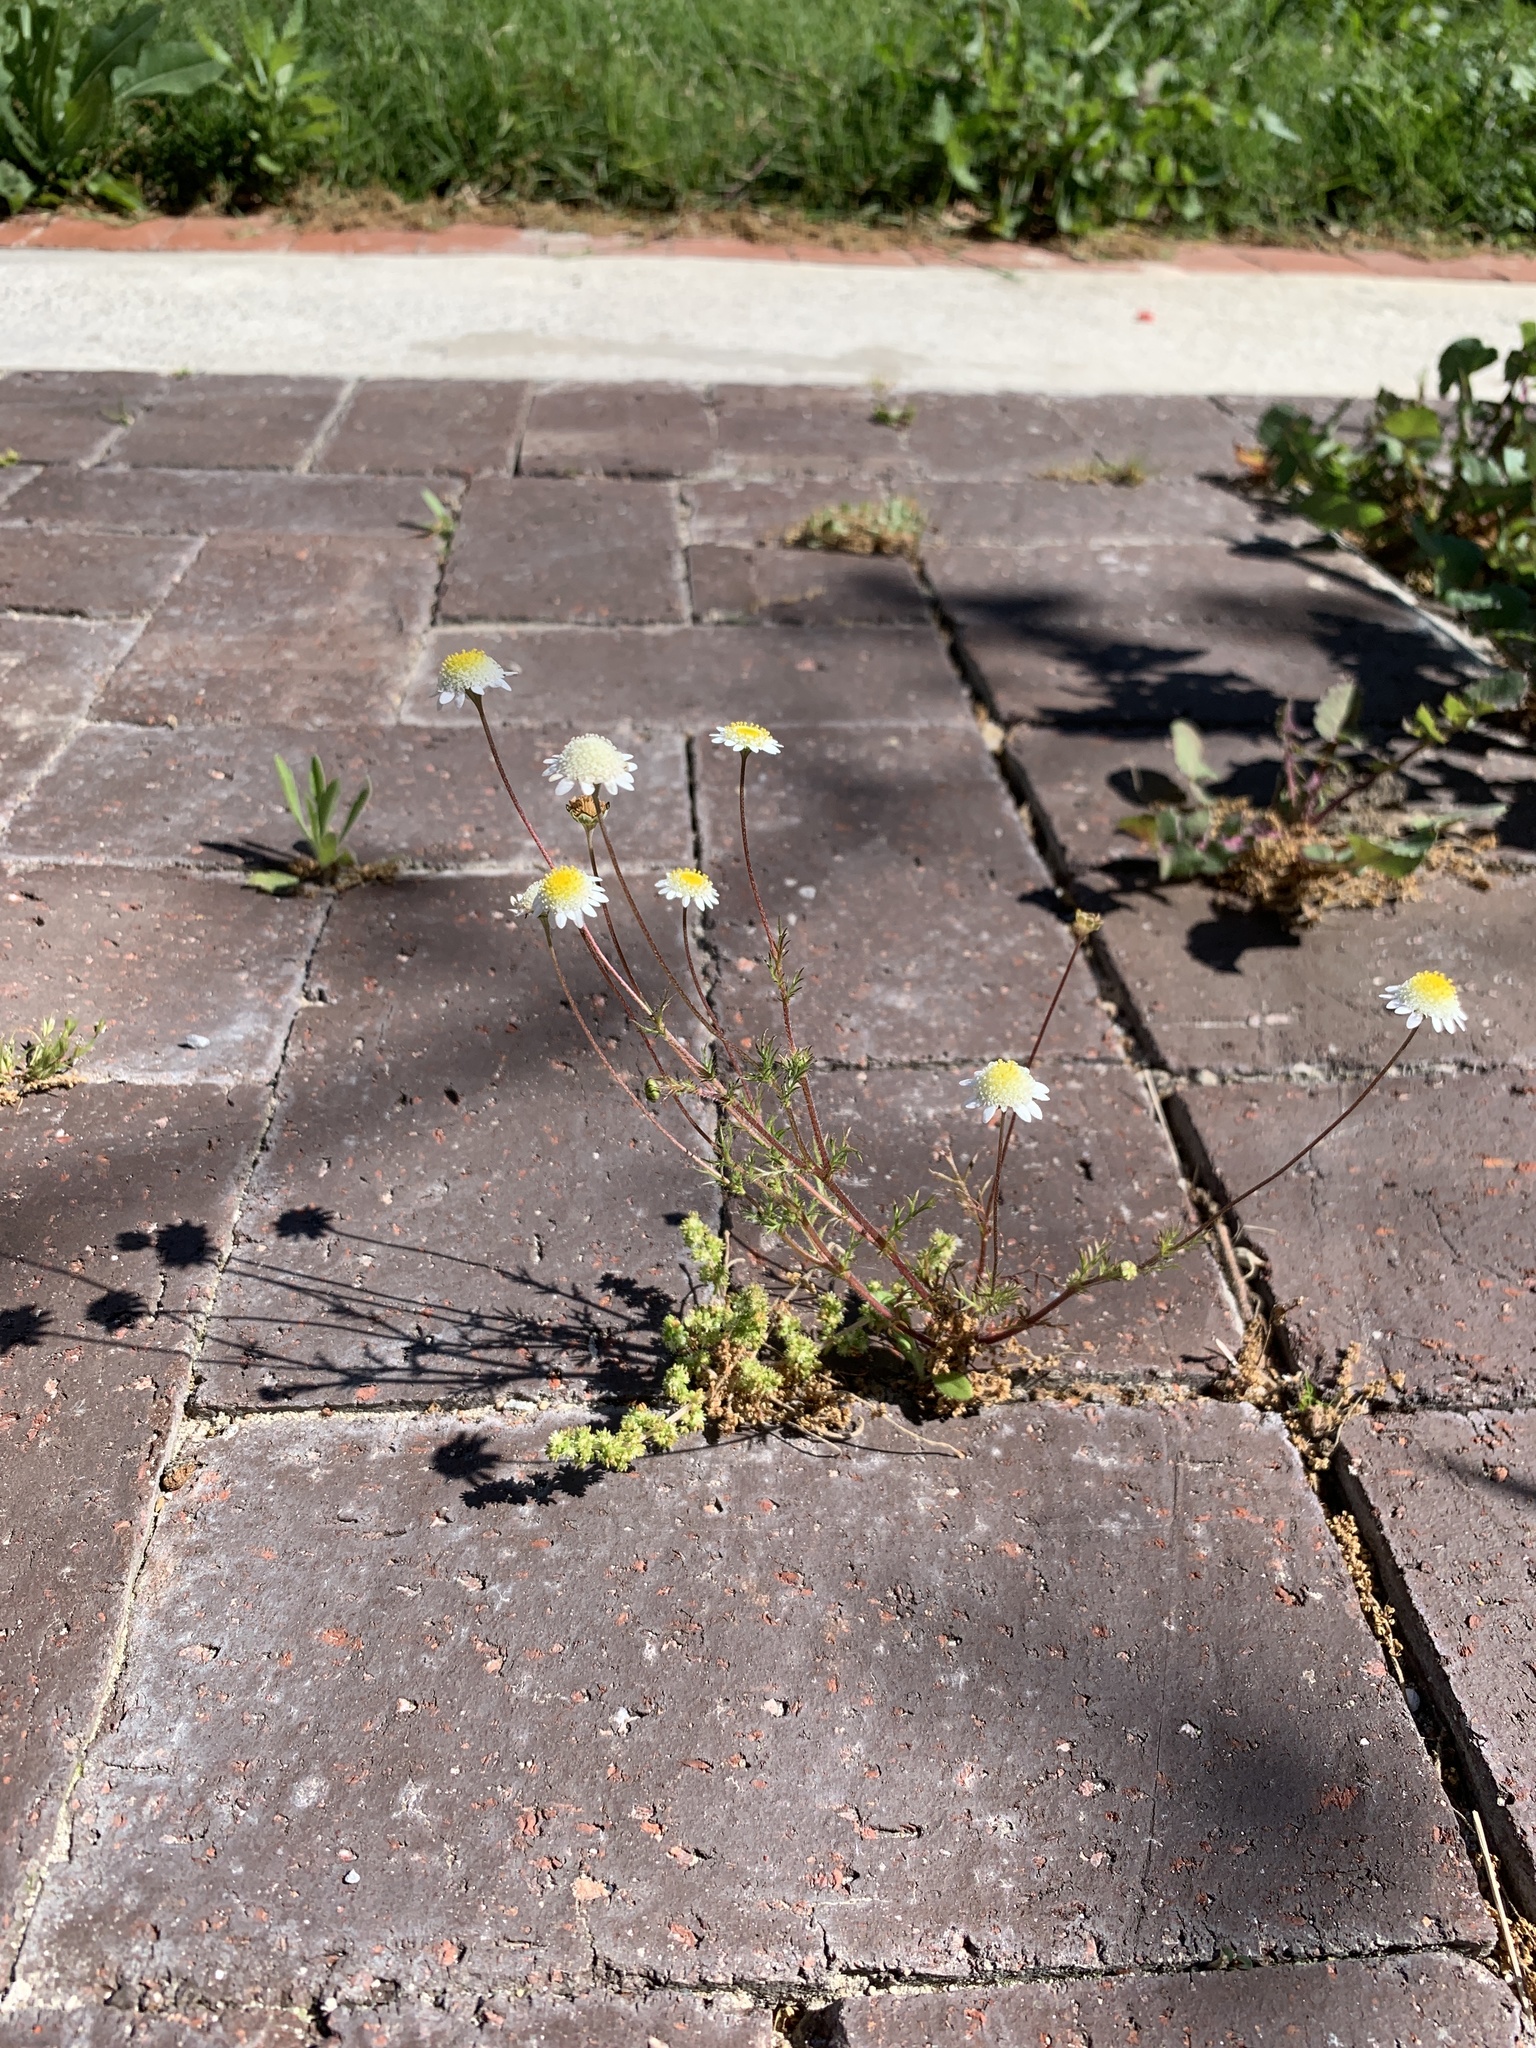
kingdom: Plantae
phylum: Tracheophyta
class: Magnoliopsida
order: Asterales
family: Asteraceae
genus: Cotula
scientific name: Cotula turbinata
